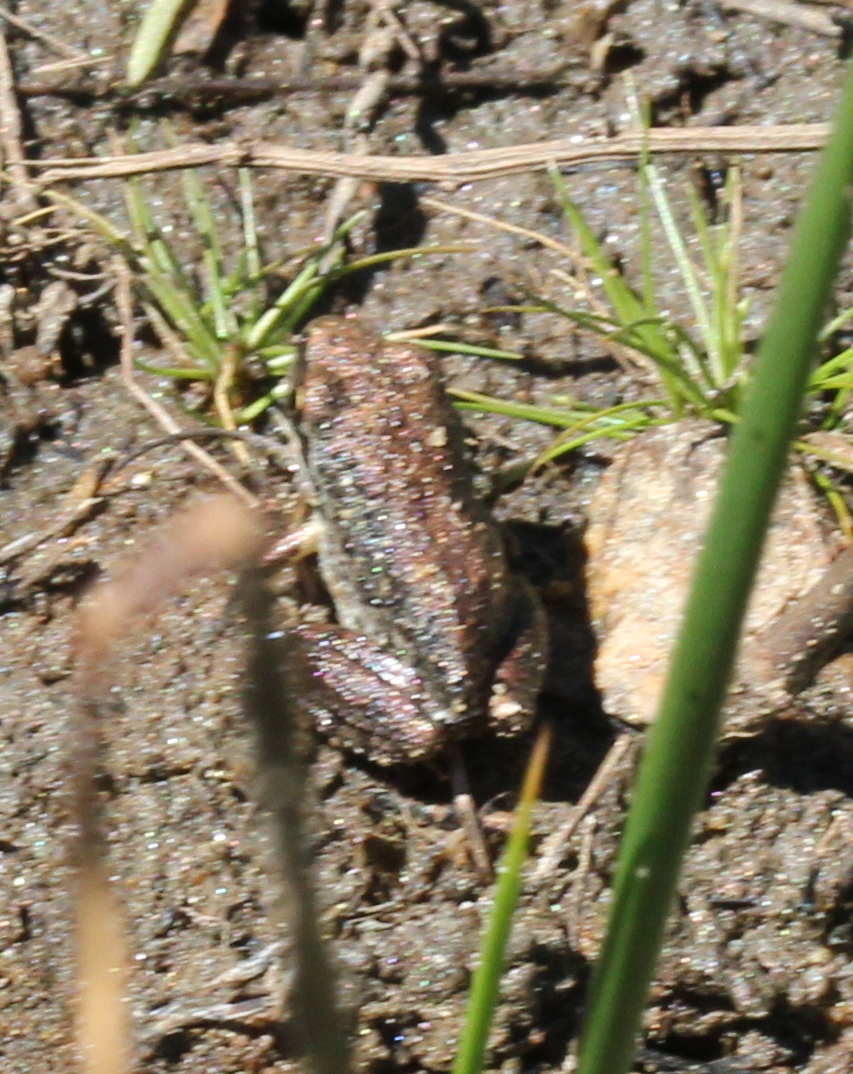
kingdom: Animalia
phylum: Chordata
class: Amphibia
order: Anura
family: Hylidae
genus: Pseudacris
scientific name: Pseudacris regilla
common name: Pacific chorus frog
